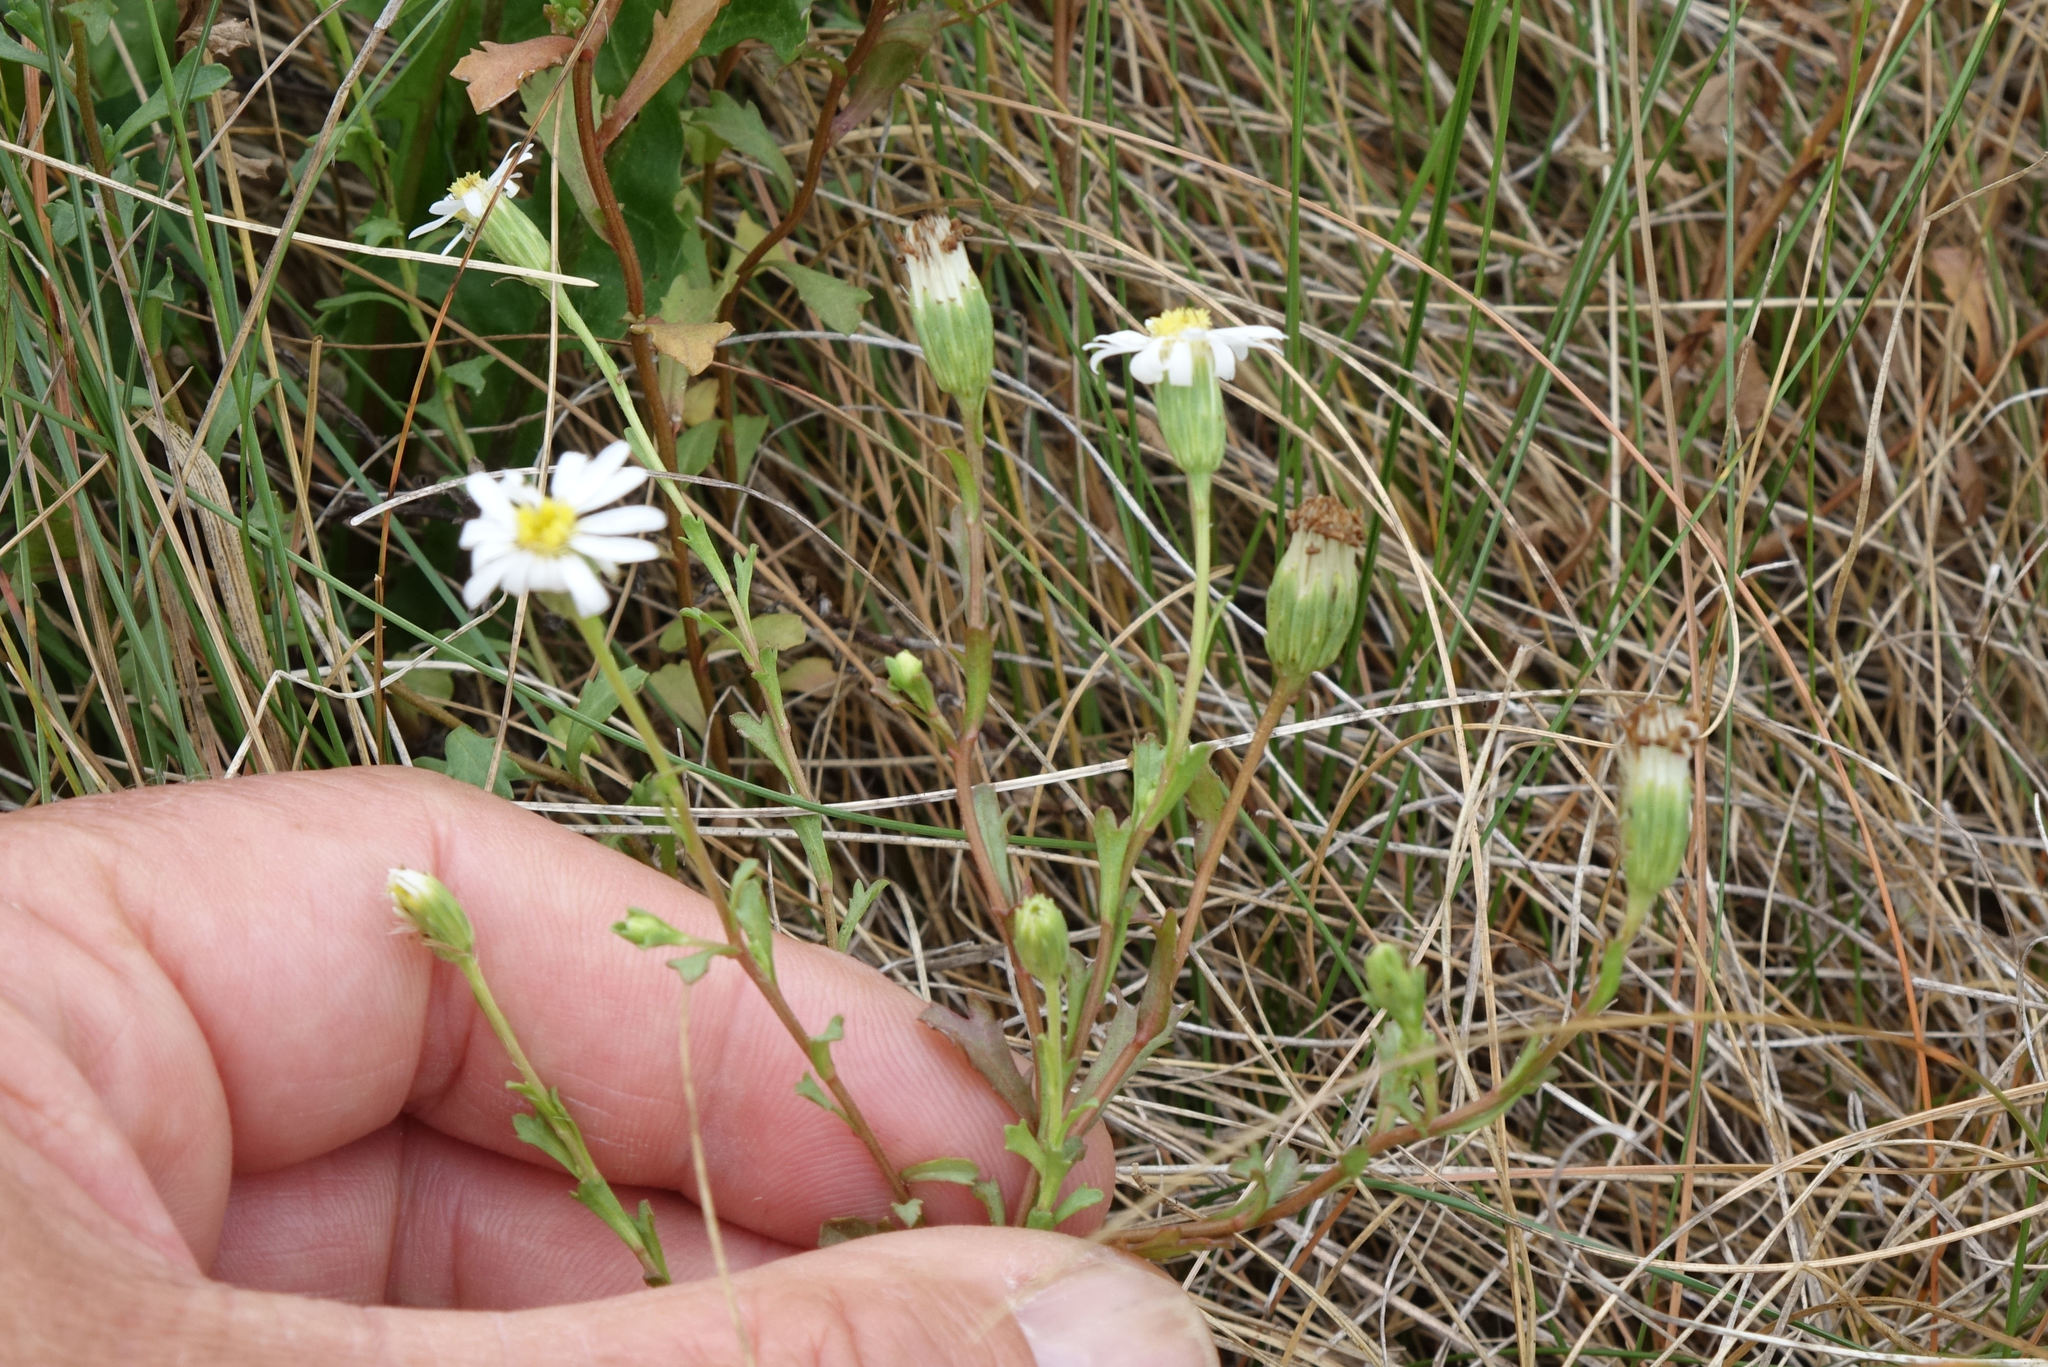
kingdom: Plantae
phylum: Tracheophyta
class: Magnoliopsida
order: Asterales
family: Asteraceae
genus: Vittadinia
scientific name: Vittadinia australis
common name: White fuzzweed
